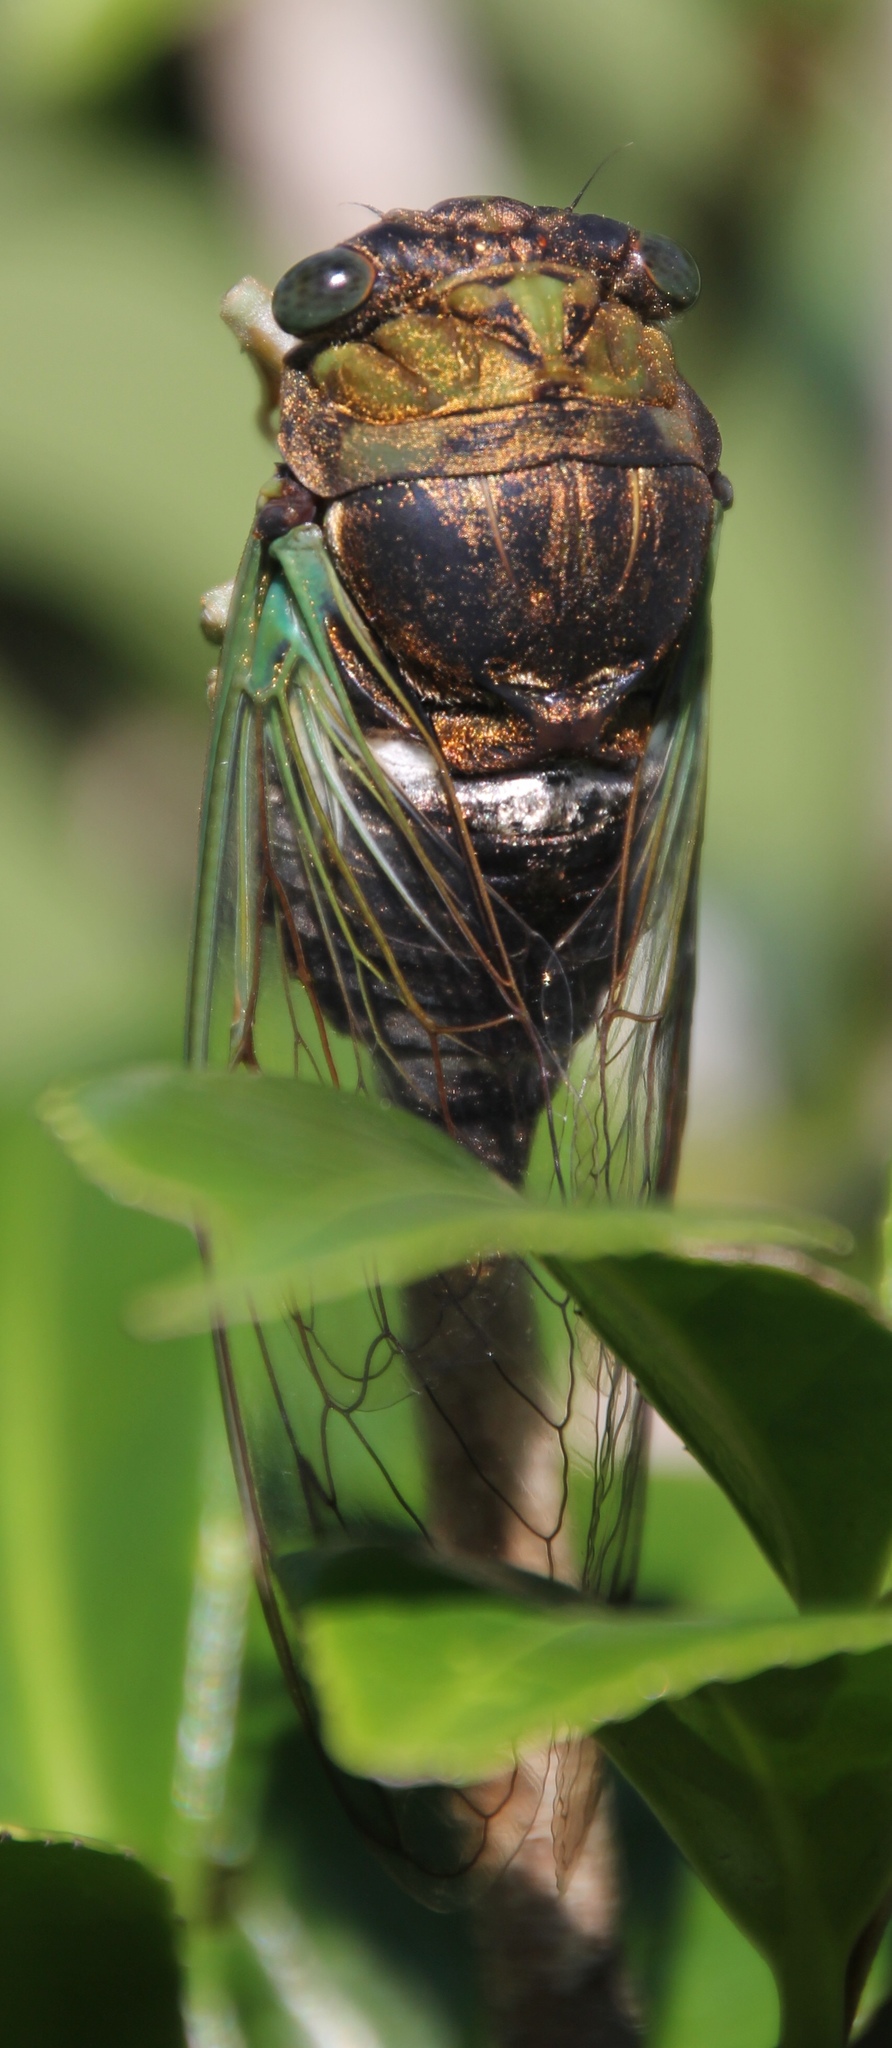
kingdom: Animalia
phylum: Arthropoda
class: Insecta
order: Hemiptera
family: Cicadidae
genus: Neotibicen
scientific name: Neotibicen tibicen
